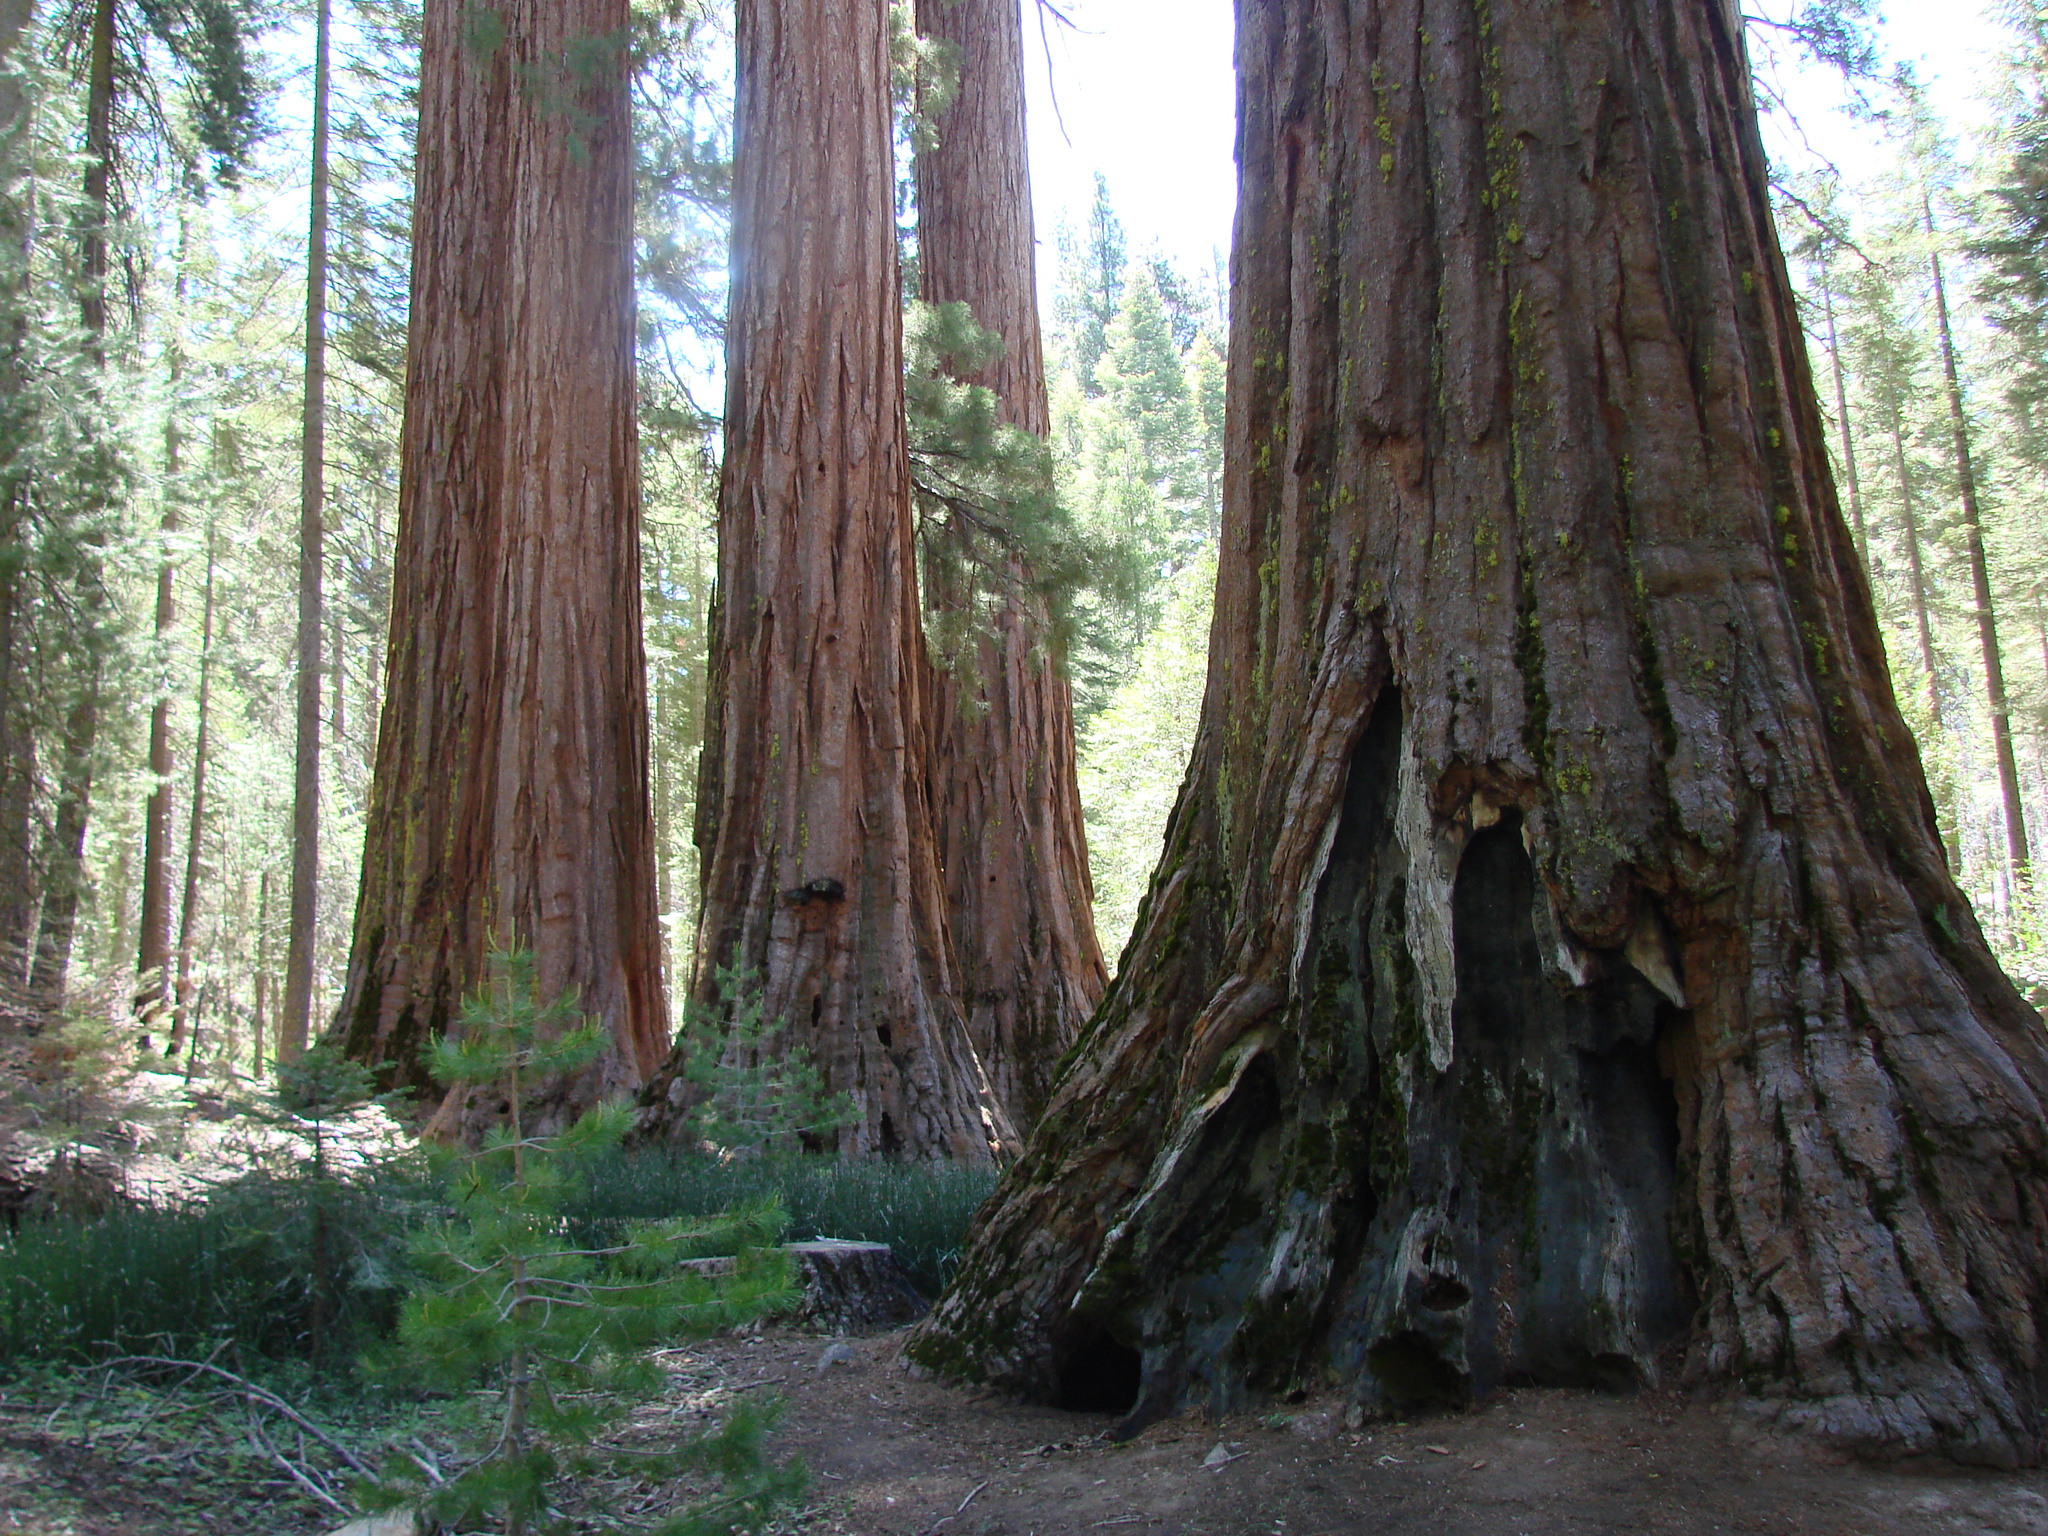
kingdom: Plantae
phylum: Tracheophyta
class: Pinopsida
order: Pinales
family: Cupressaceae
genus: Sequoiadendron
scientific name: Sequoiadendron giganteum
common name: Wellingtonia
